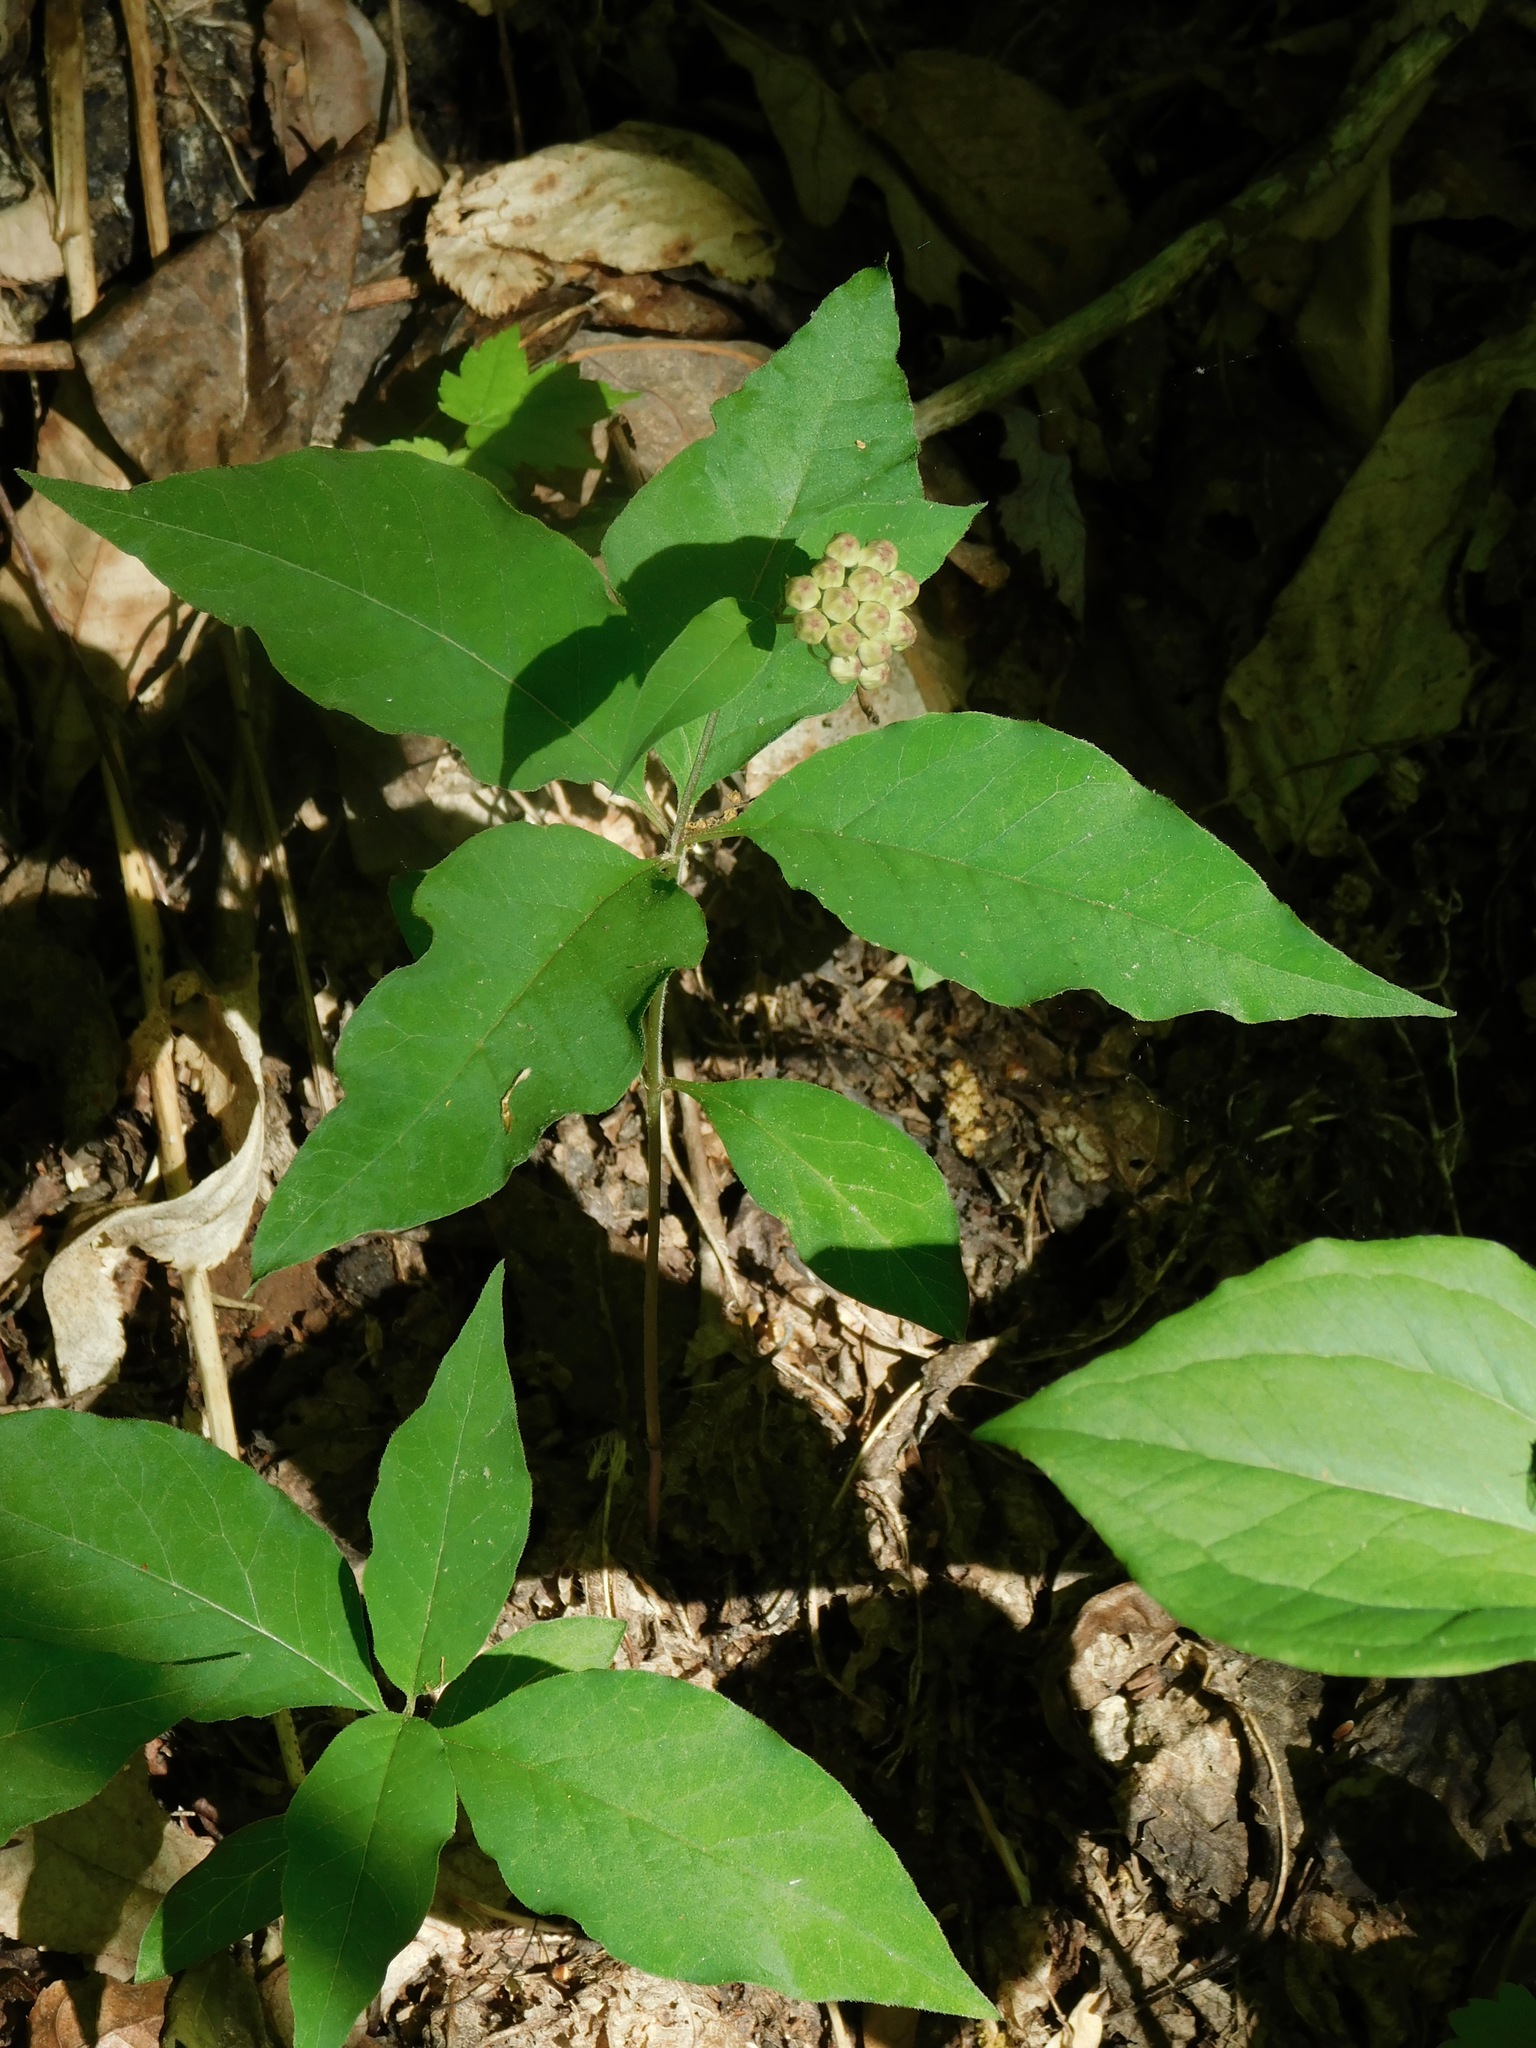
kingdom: Plantae
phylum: Tracheophyta
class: Magnoliopsida
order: Gentianales
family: Apocynaceae
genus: Asclepias
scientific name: Asclepias quadrifolia
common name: Whorled milkweed
